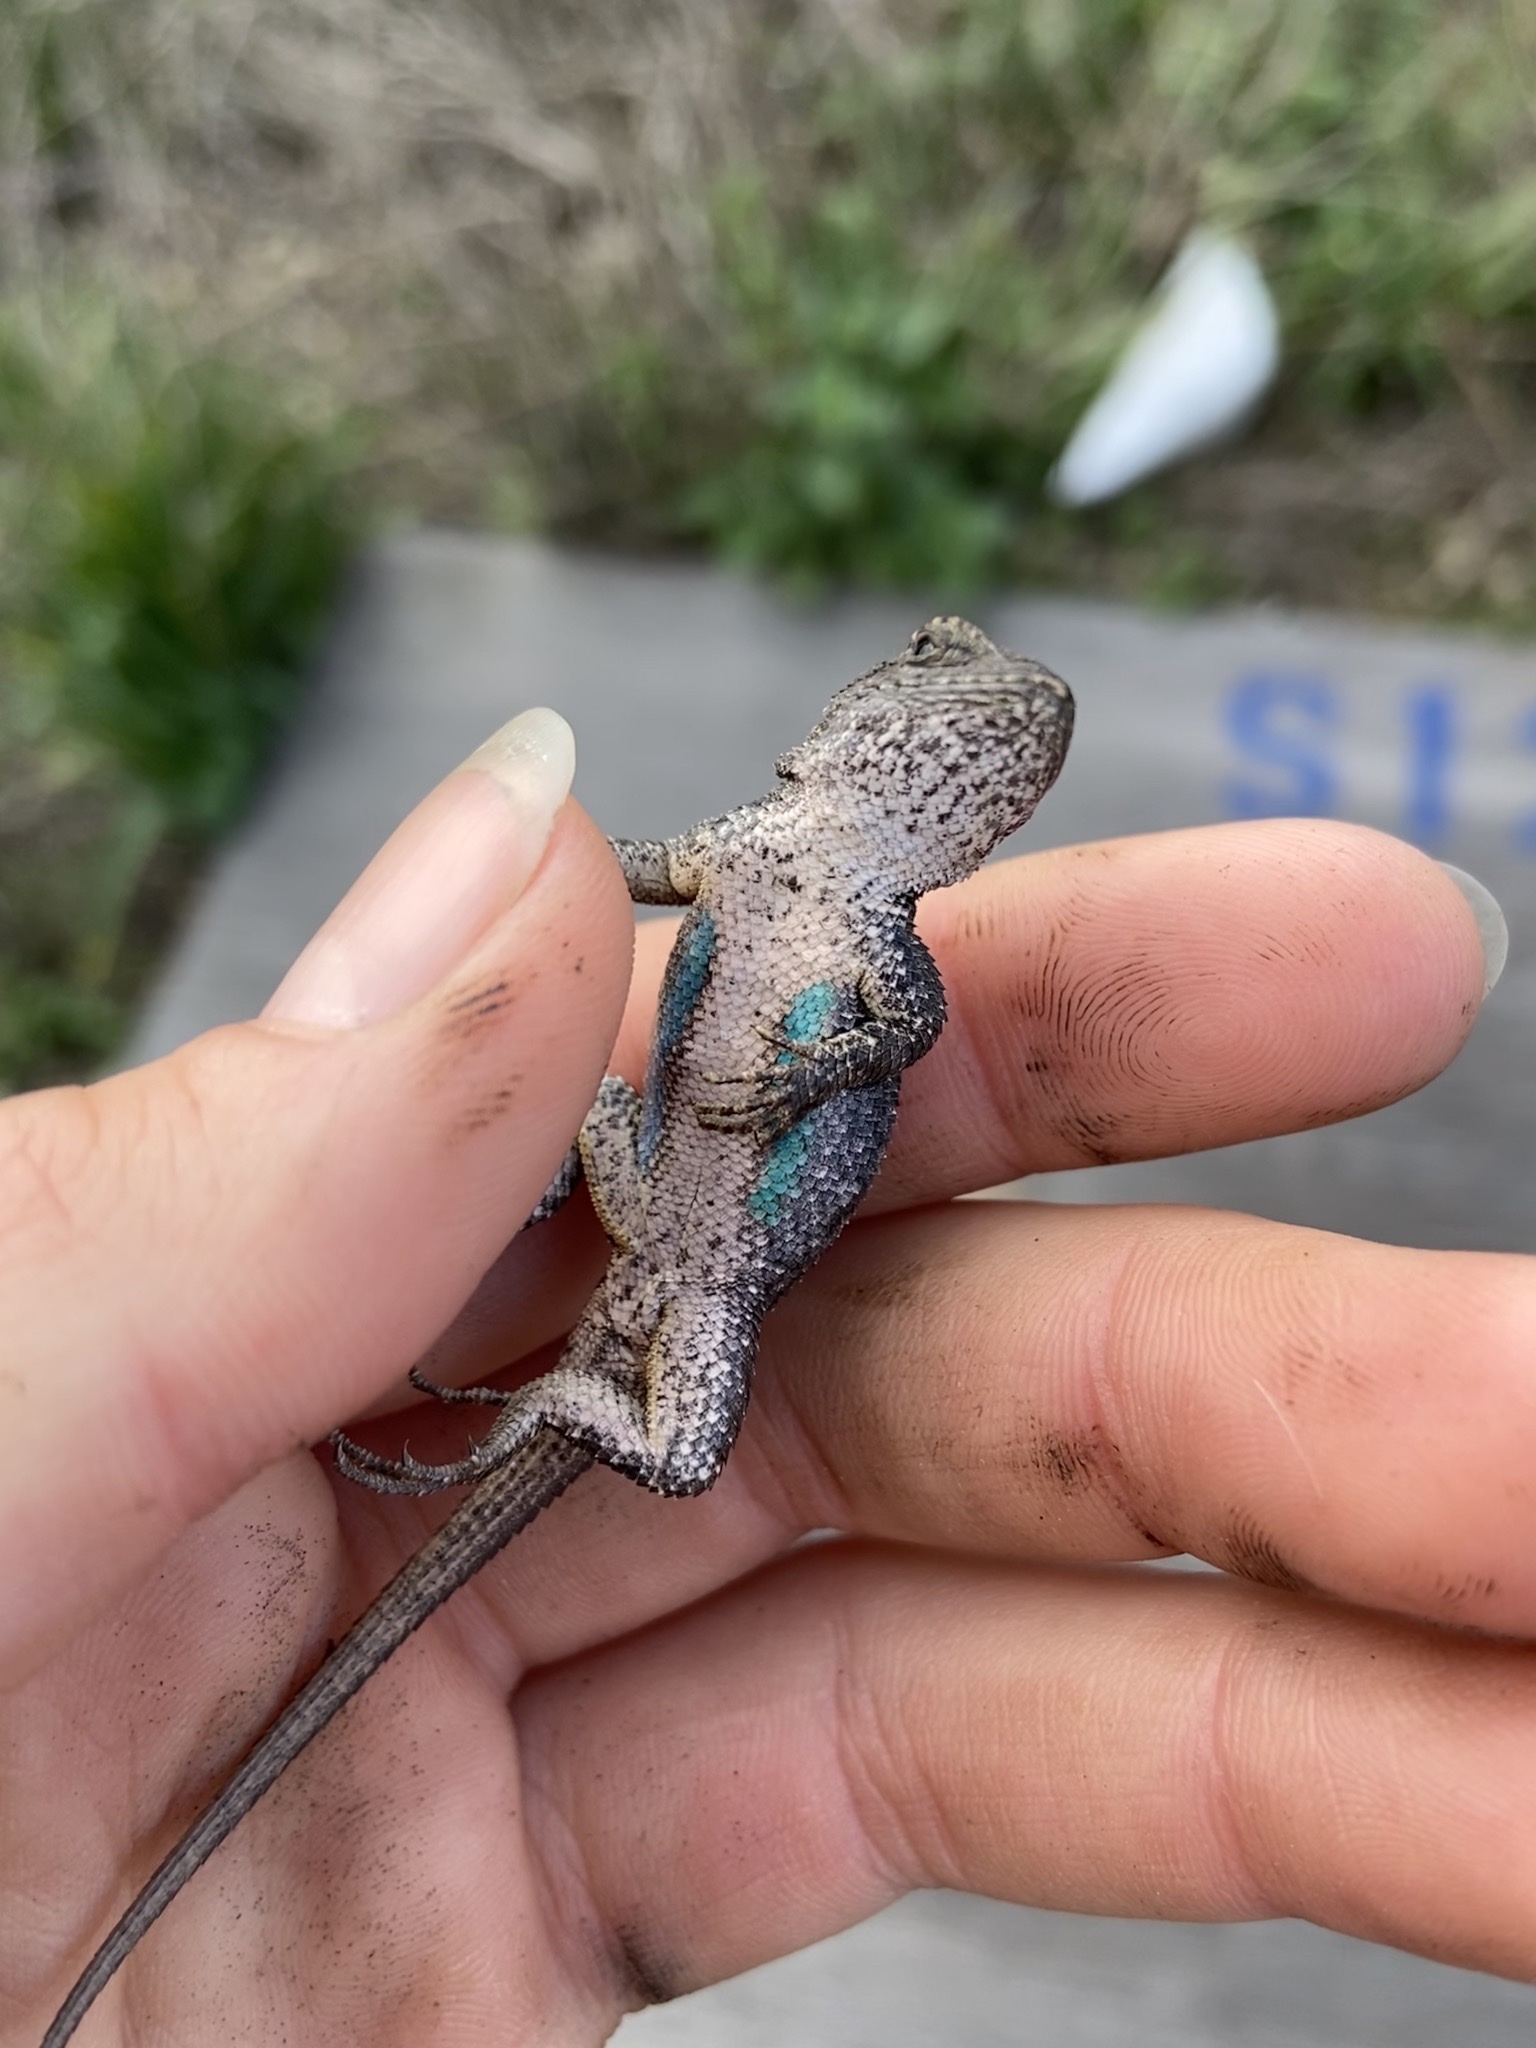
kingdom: Animalia
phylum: Chordata
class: Squamata
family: Phrynosomatidae
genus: Sceloporus
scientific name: Sceloporus occidentalis
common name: Western fence lizard
